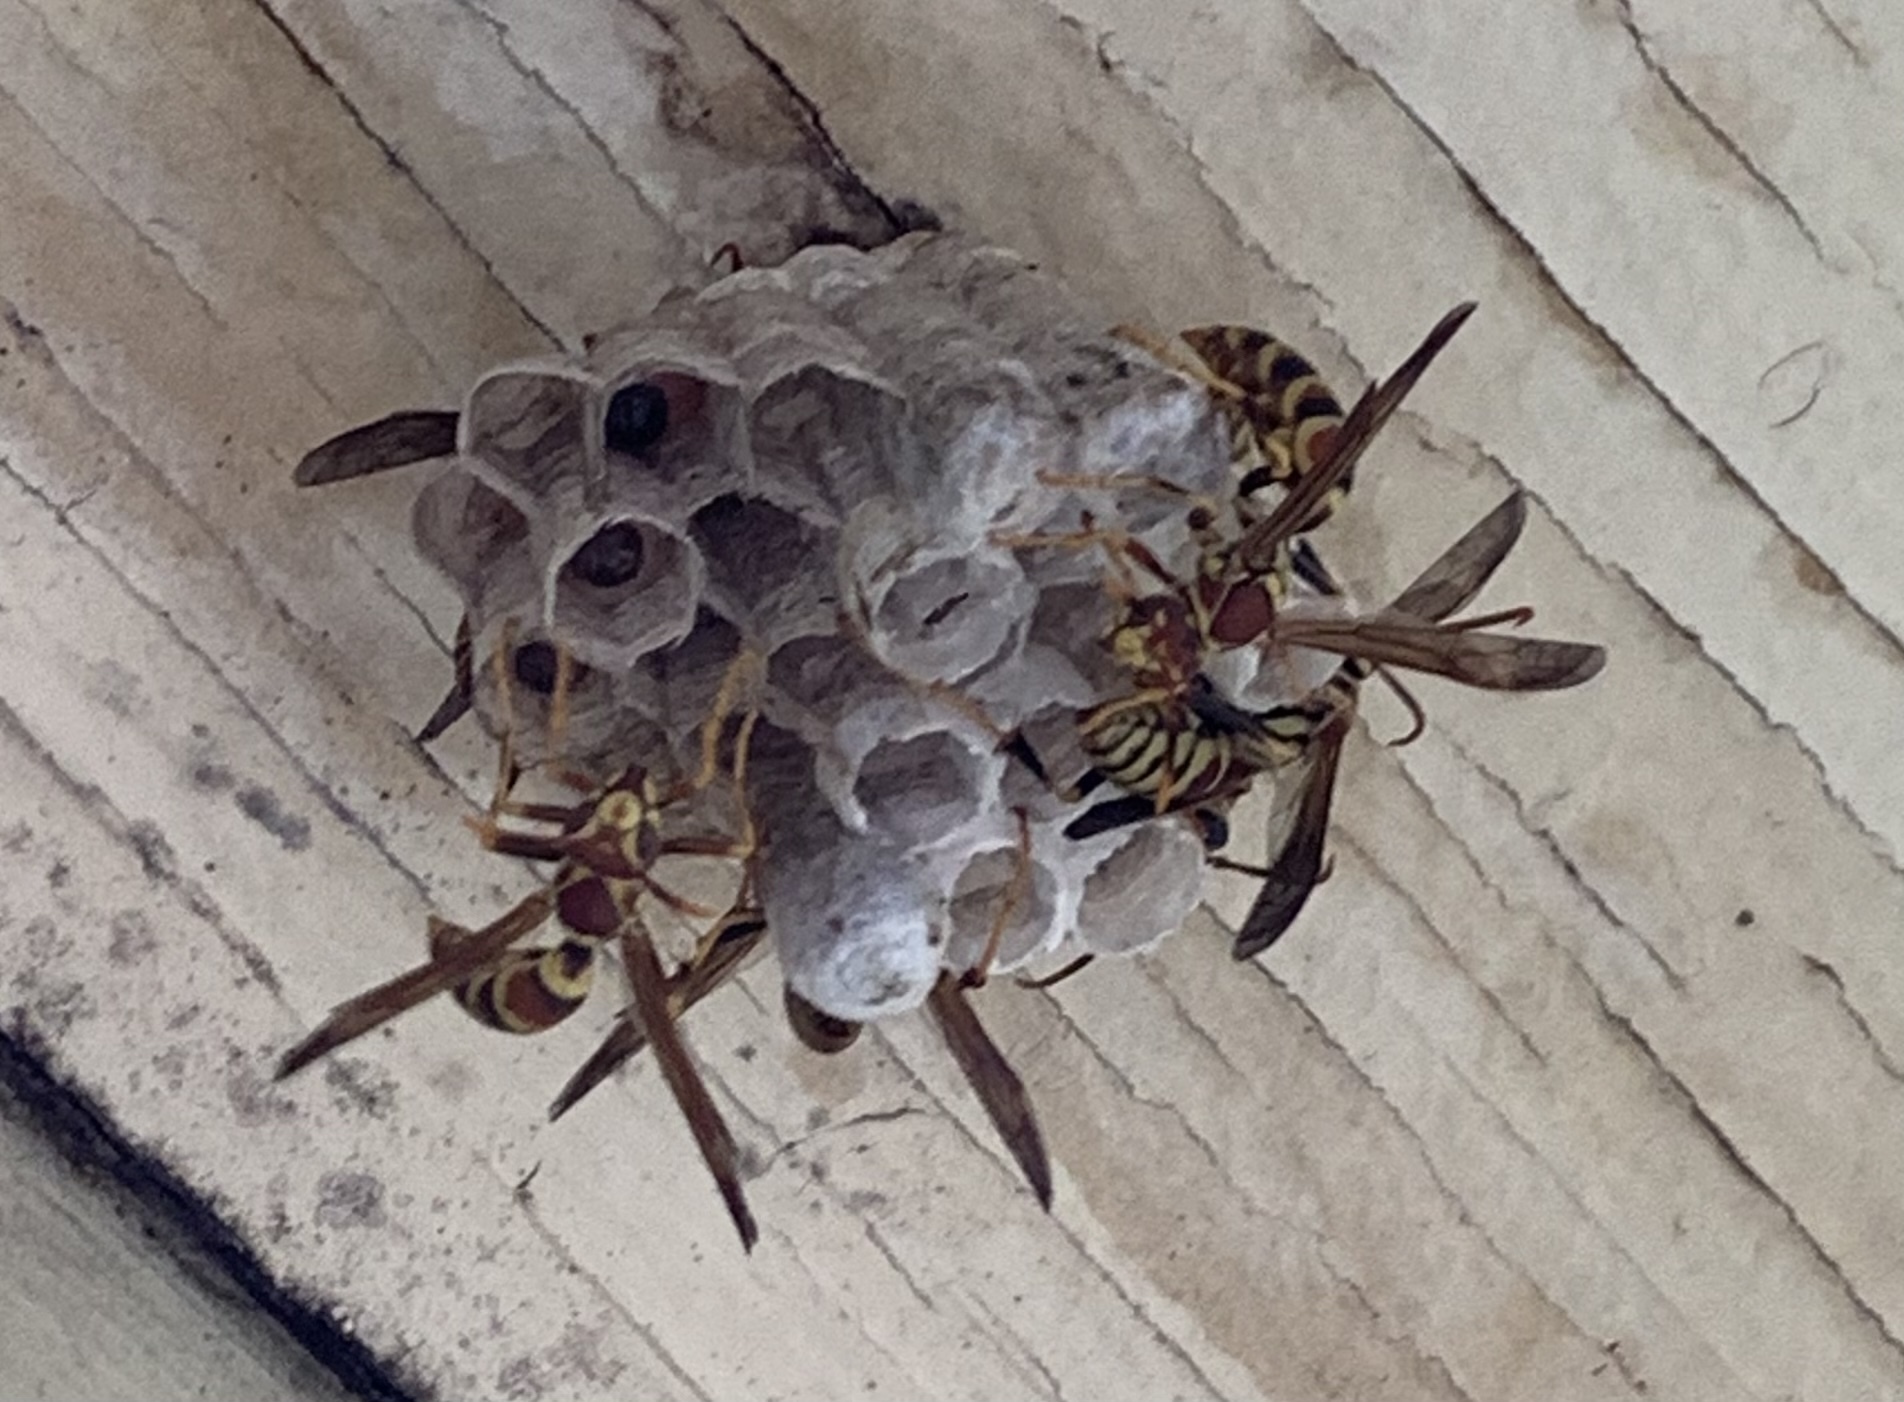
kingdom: Animalia
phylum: Arthropoda
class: Insecta
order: Hymenoptera
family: Eumenidae
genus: Polistes
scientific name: Polistes exclamans
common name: Paper wasp
